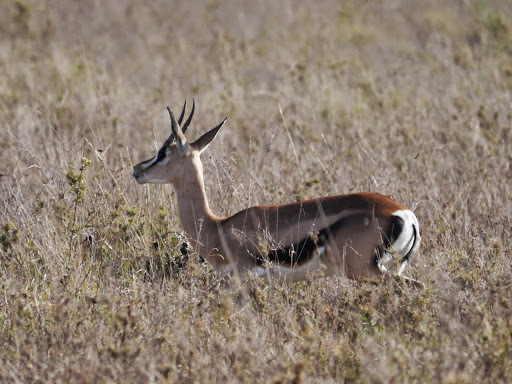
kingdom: Animalia
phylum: Chordata
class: Mammalia
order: Artiodactyla
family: Bovidae
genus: Nanger
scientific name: Nanger granti
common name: Grant's gazelle
